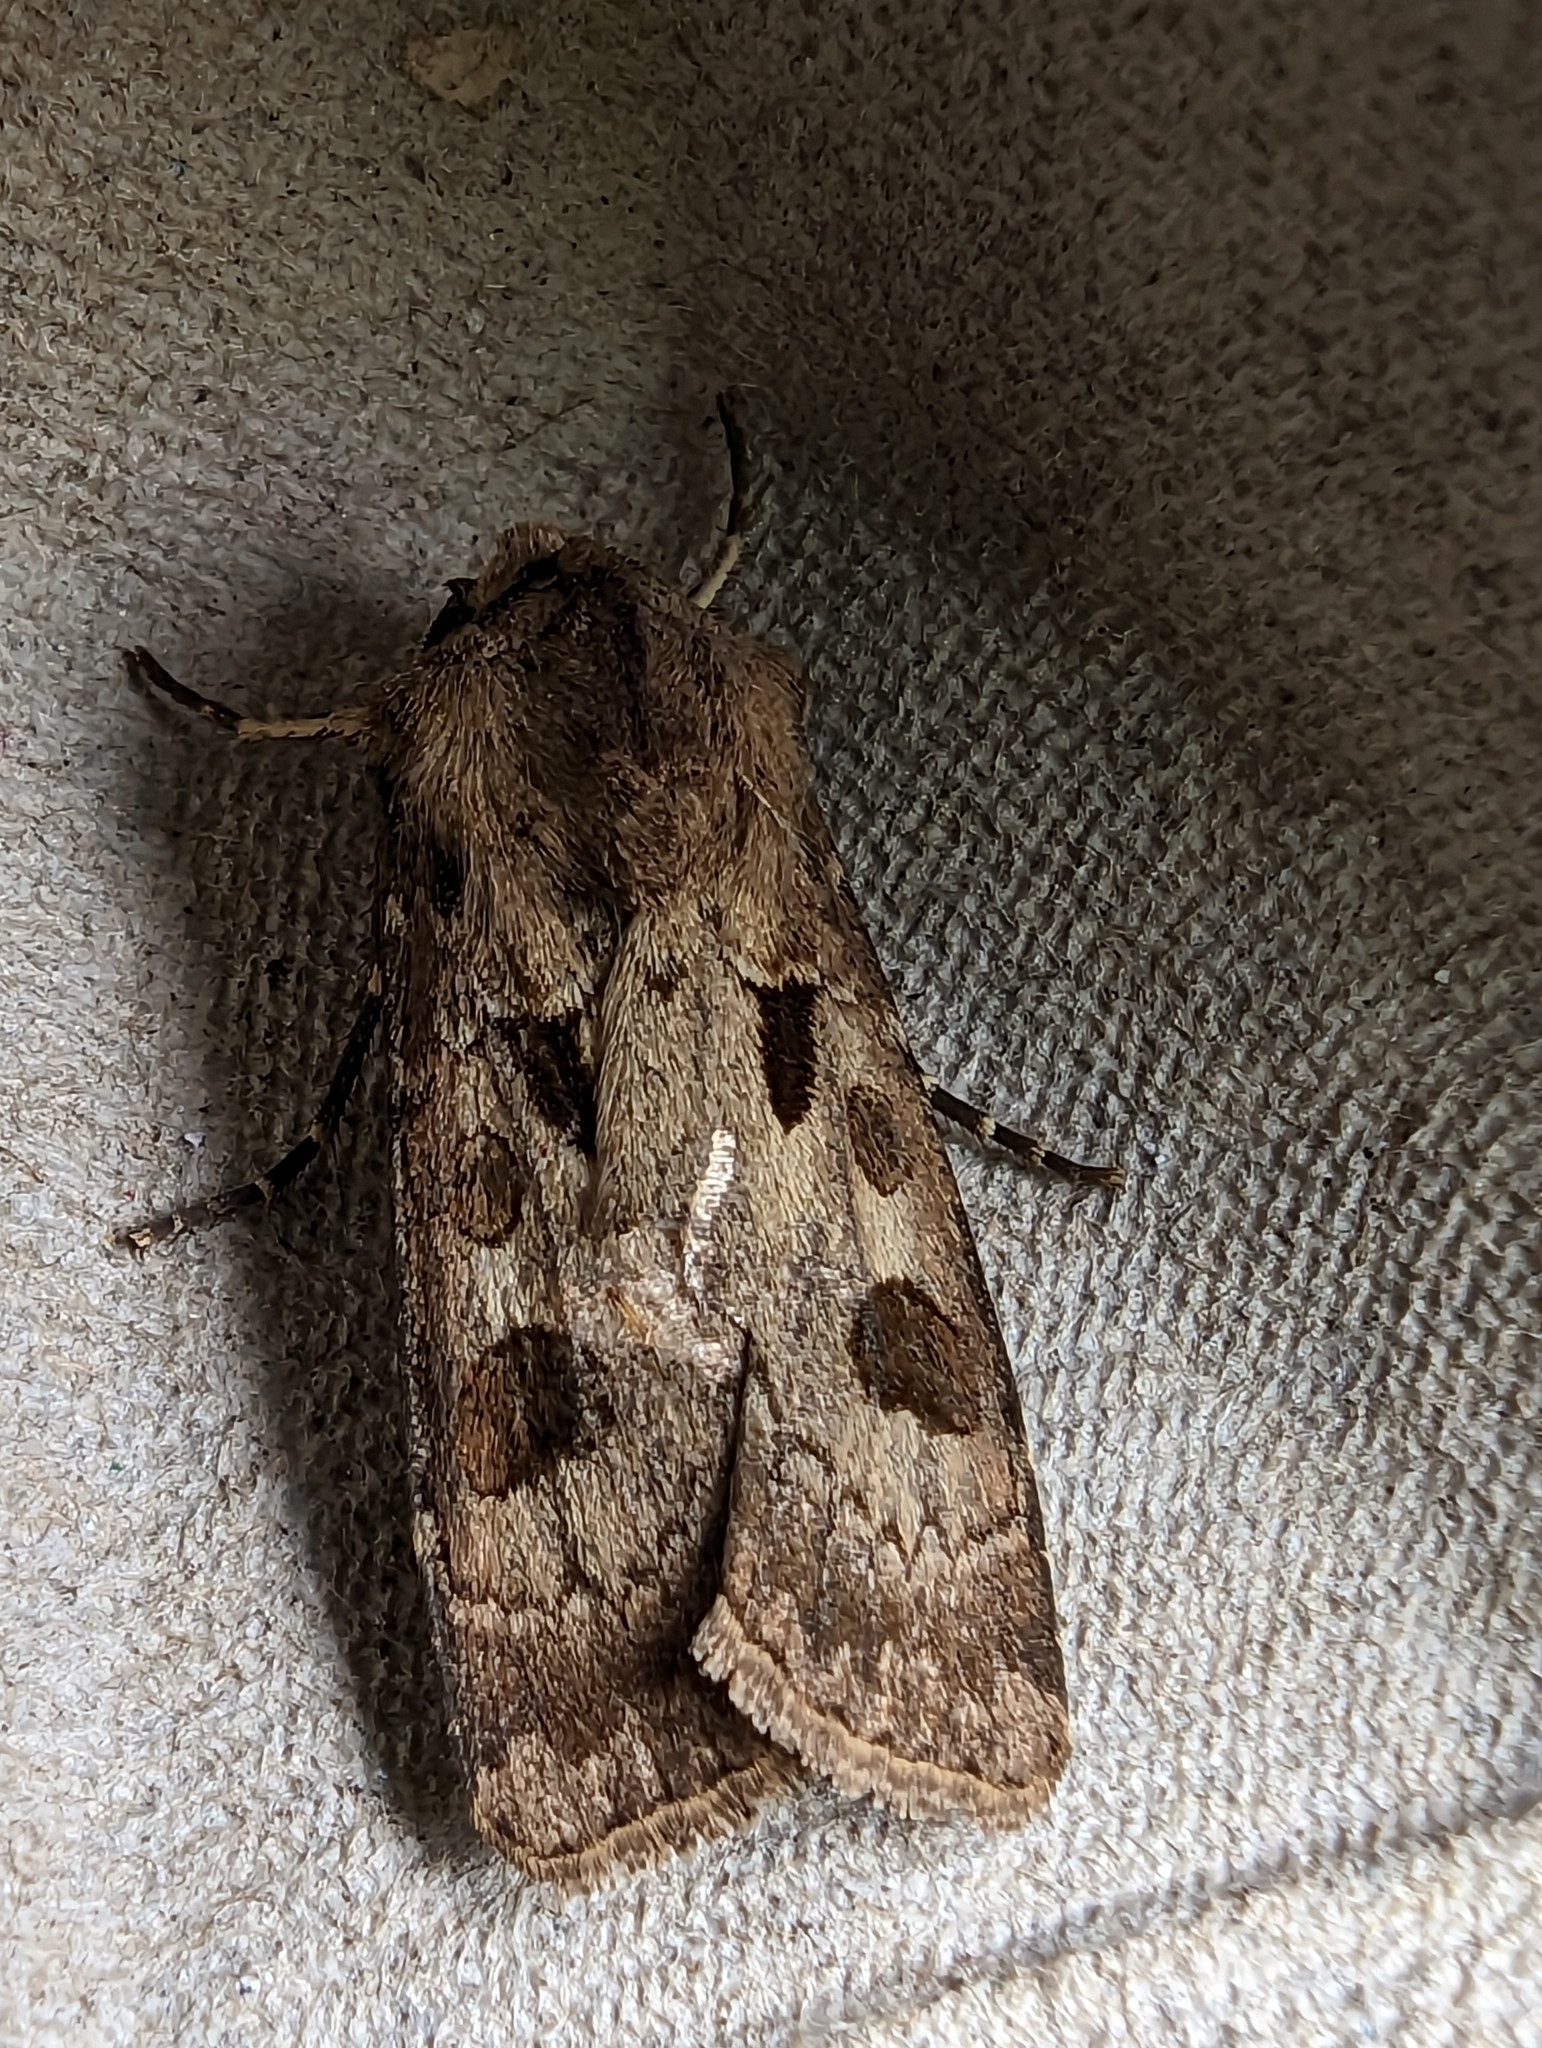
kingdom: Animalia
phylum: Arthropoda
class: Insecta
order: Lepidoptera
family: Noctuidae
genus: Agrotis
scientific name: Agrotis exclamationis
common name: Heart and dart
